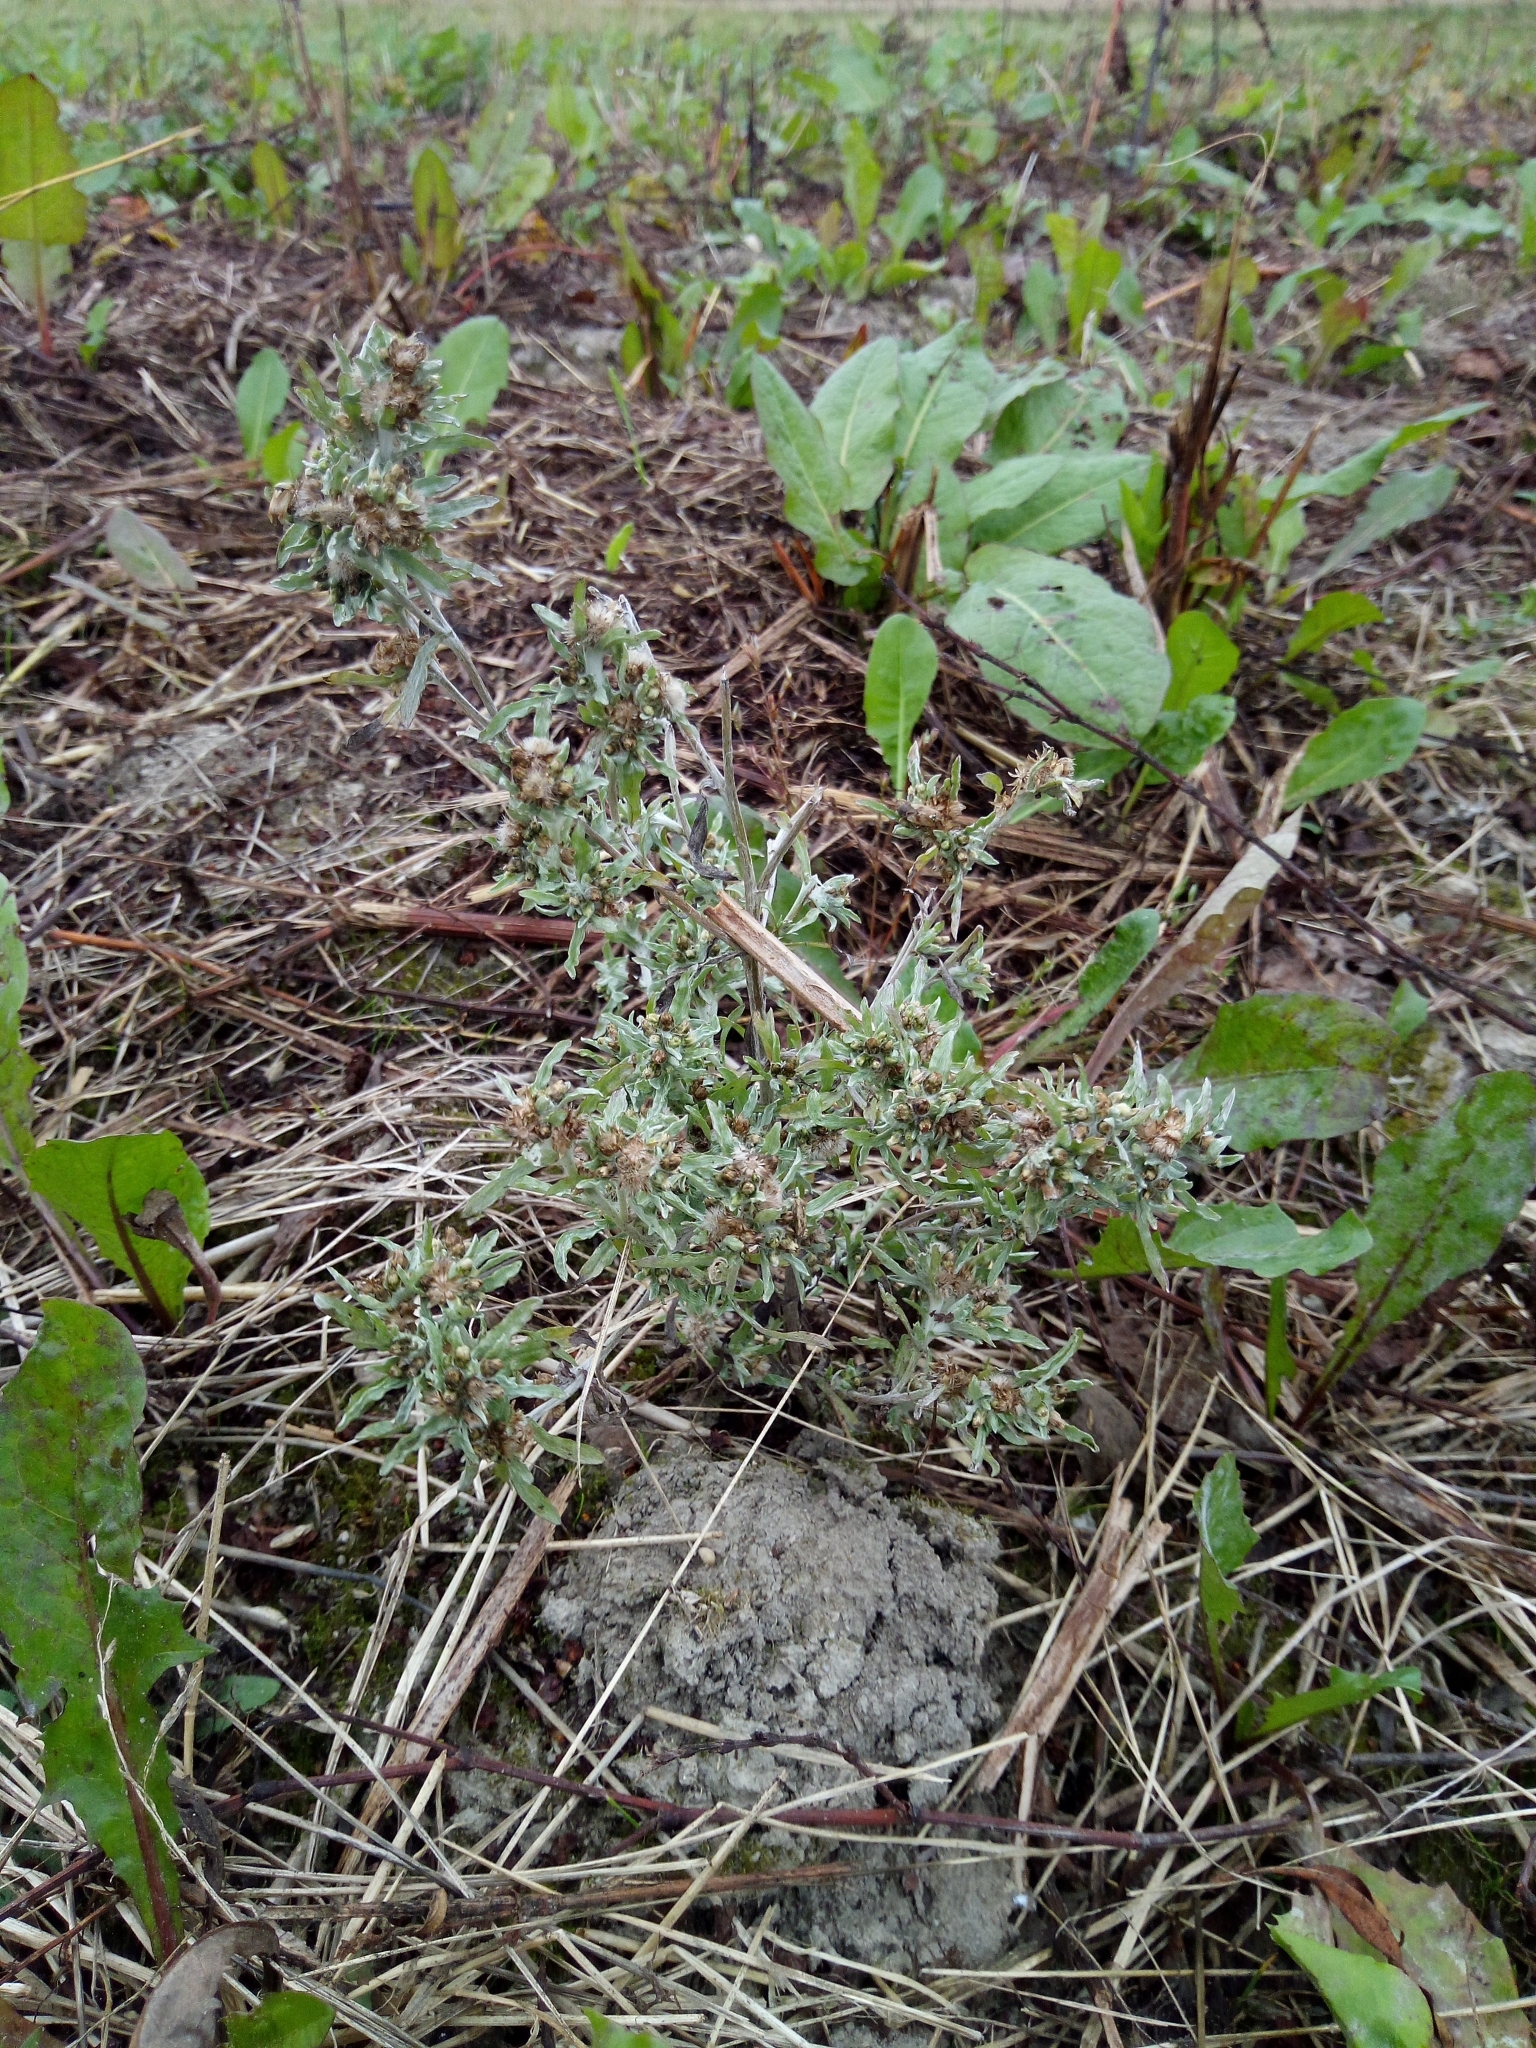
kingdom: Plantae
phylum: Tracheophyta
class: Magnoliopsida
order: Asterales
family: Asteraceae
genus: Gnaphalium
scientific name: Gnaphalium uliginosum
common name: Marsh cudweed
